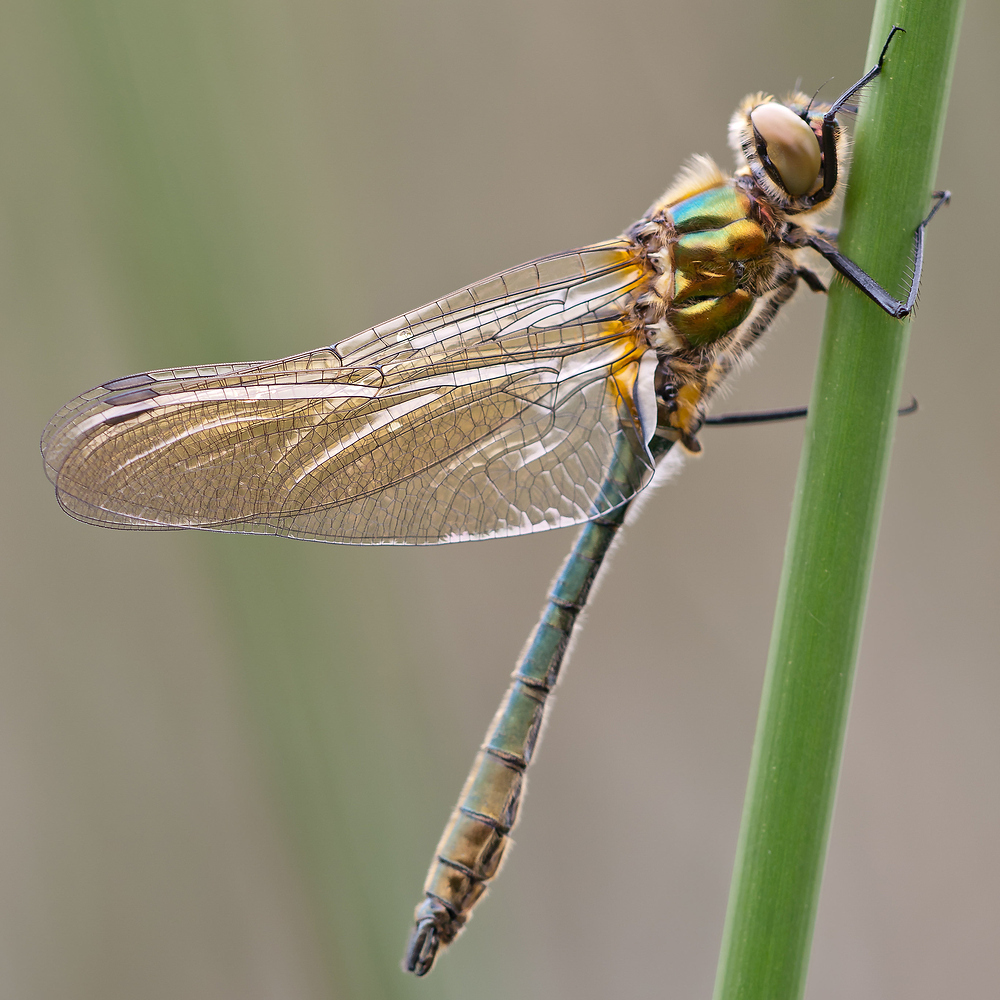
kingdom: Animalia
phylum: Arthropoda
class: Insecta
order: Odonata
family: Corduliidae
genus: Cordulia
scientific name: Cordulia aenea
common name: Downy emerald
